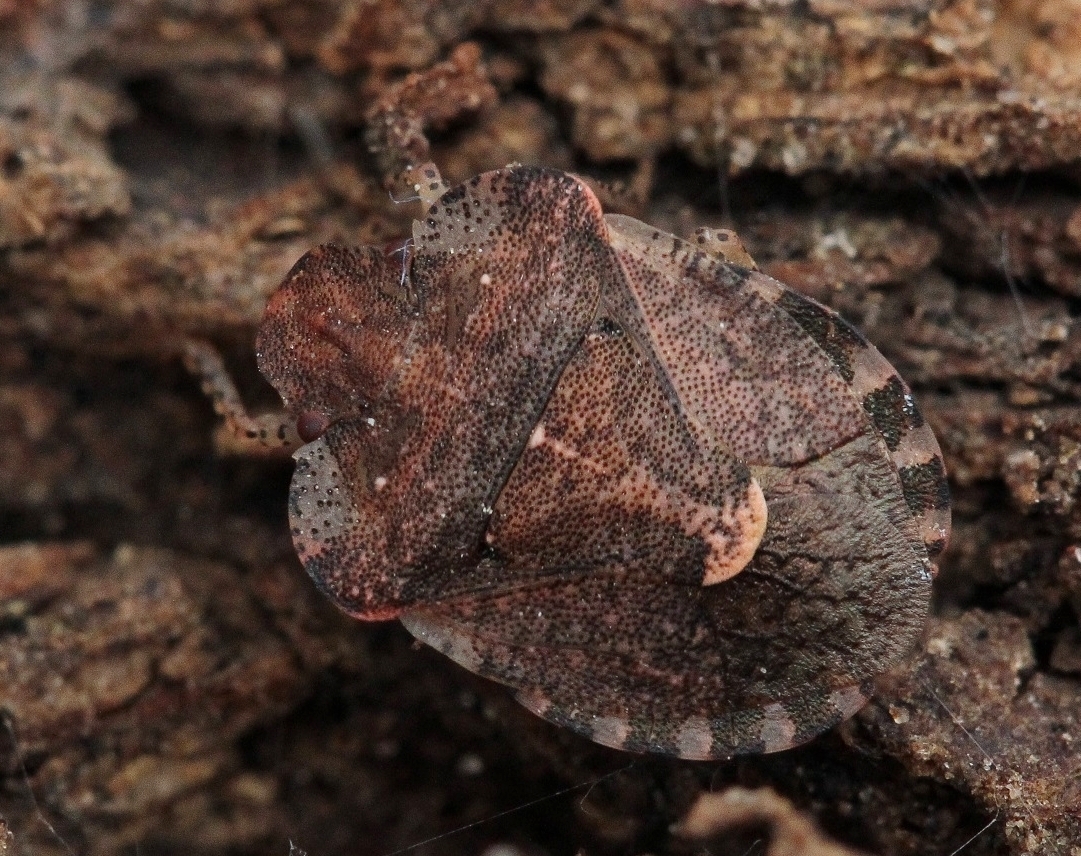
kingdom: Animalia
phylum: Arthropoda
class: Insecta
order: Hemiptera
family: Pentatomidae
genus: Dyroderes
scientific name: Dyroderes umbraculatus
